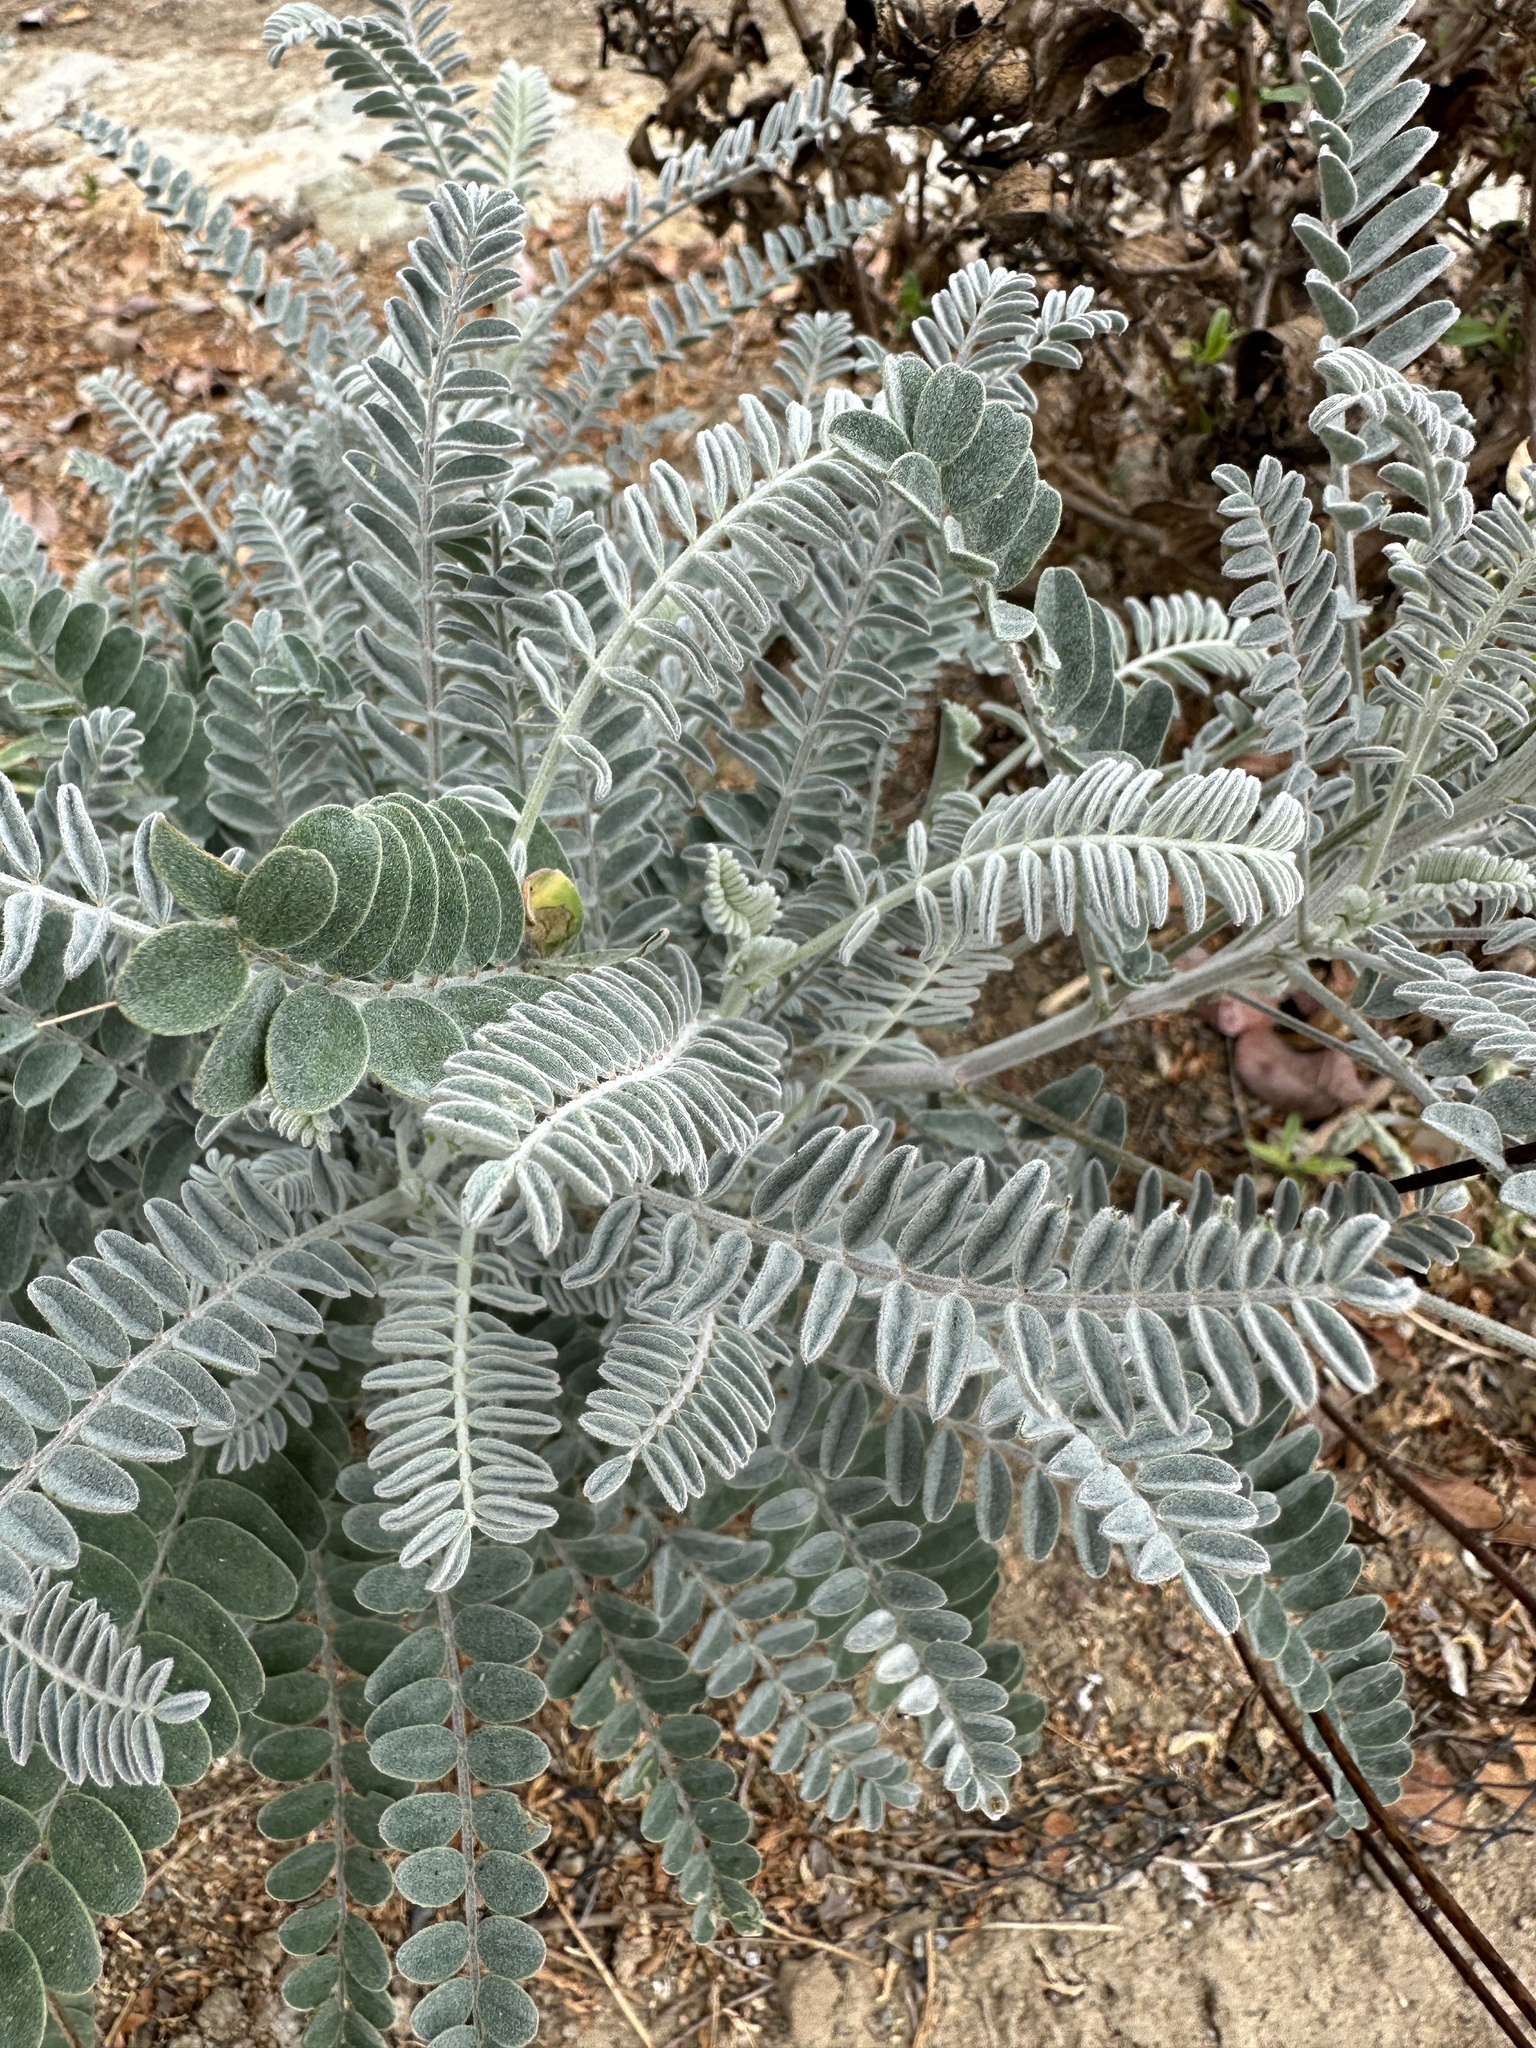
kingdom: Plantae
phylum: Tracheophyta
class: Magnoliopsida
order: Fabales
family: Fabaceae
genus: Astragalus
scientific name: Astragalus trichopodus
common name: Santa barbara milk-vetch
